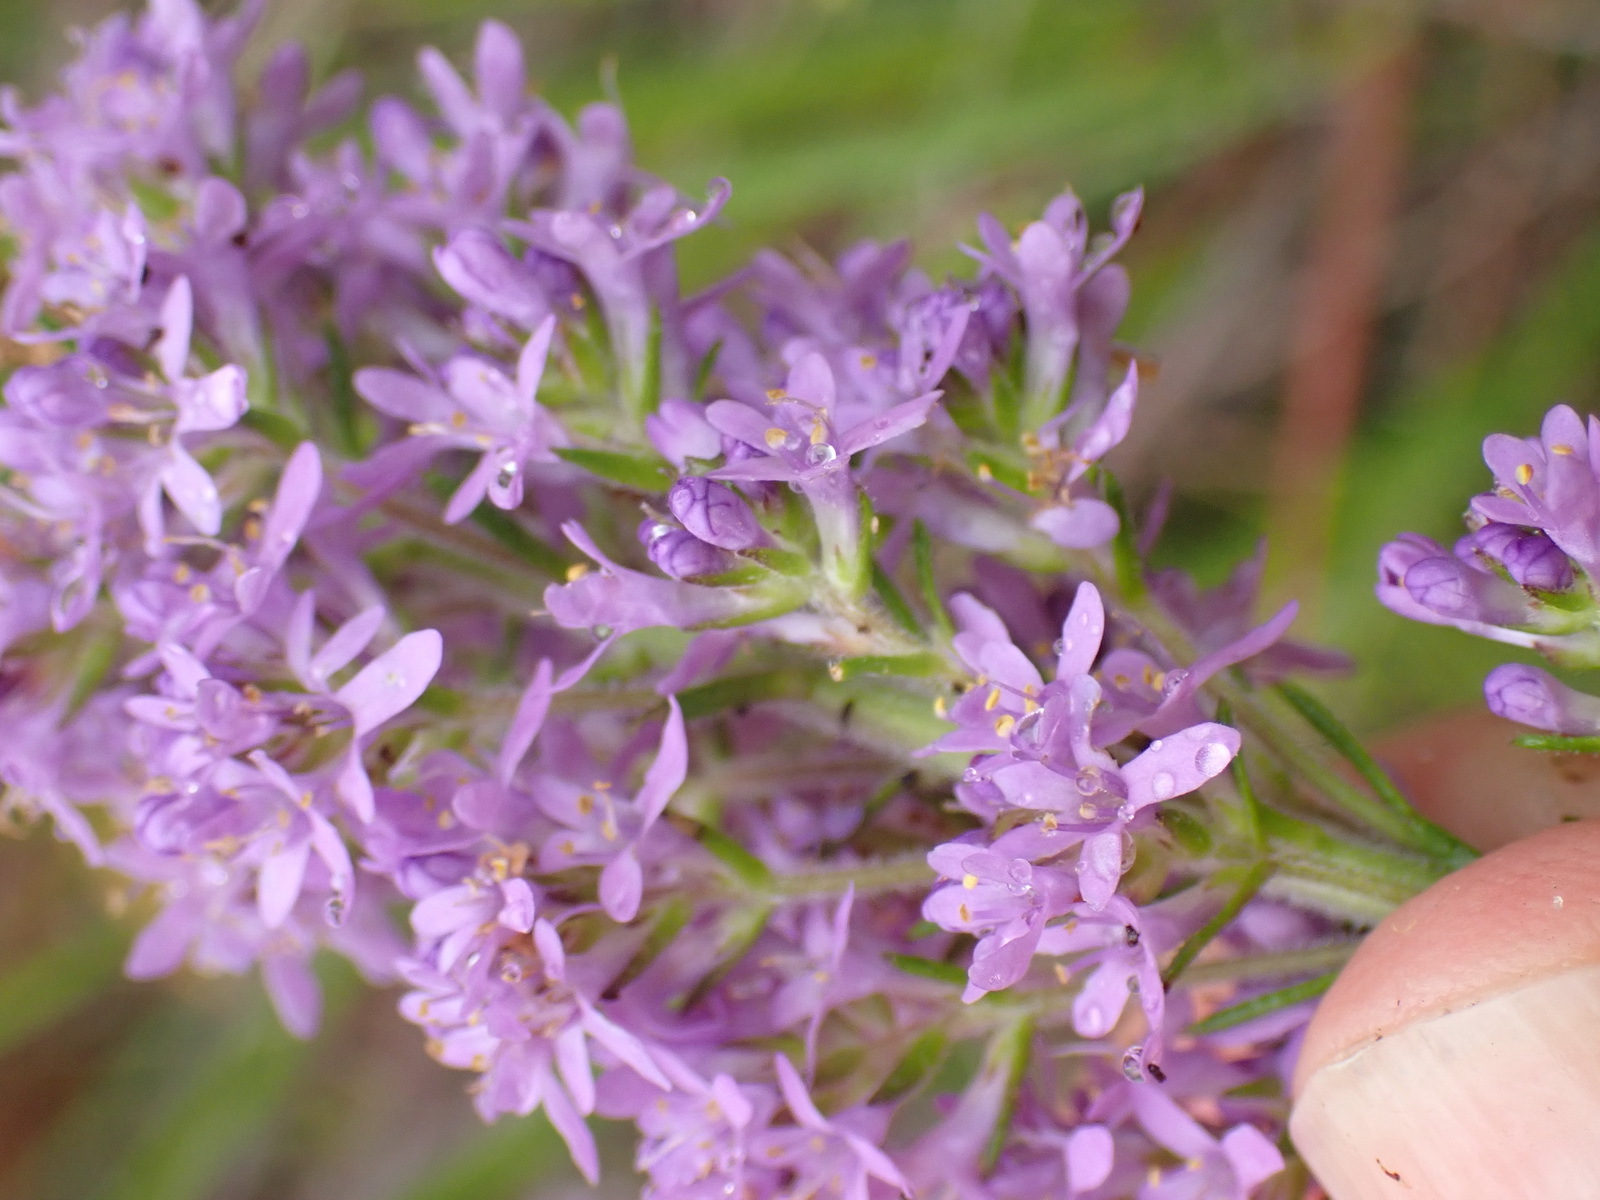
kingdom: Plantae
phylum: Tracheophyta
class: Magnoliopsida
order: Lamiales
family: Scrophulariaceae
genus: Selago
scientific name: Selago villicaulis
